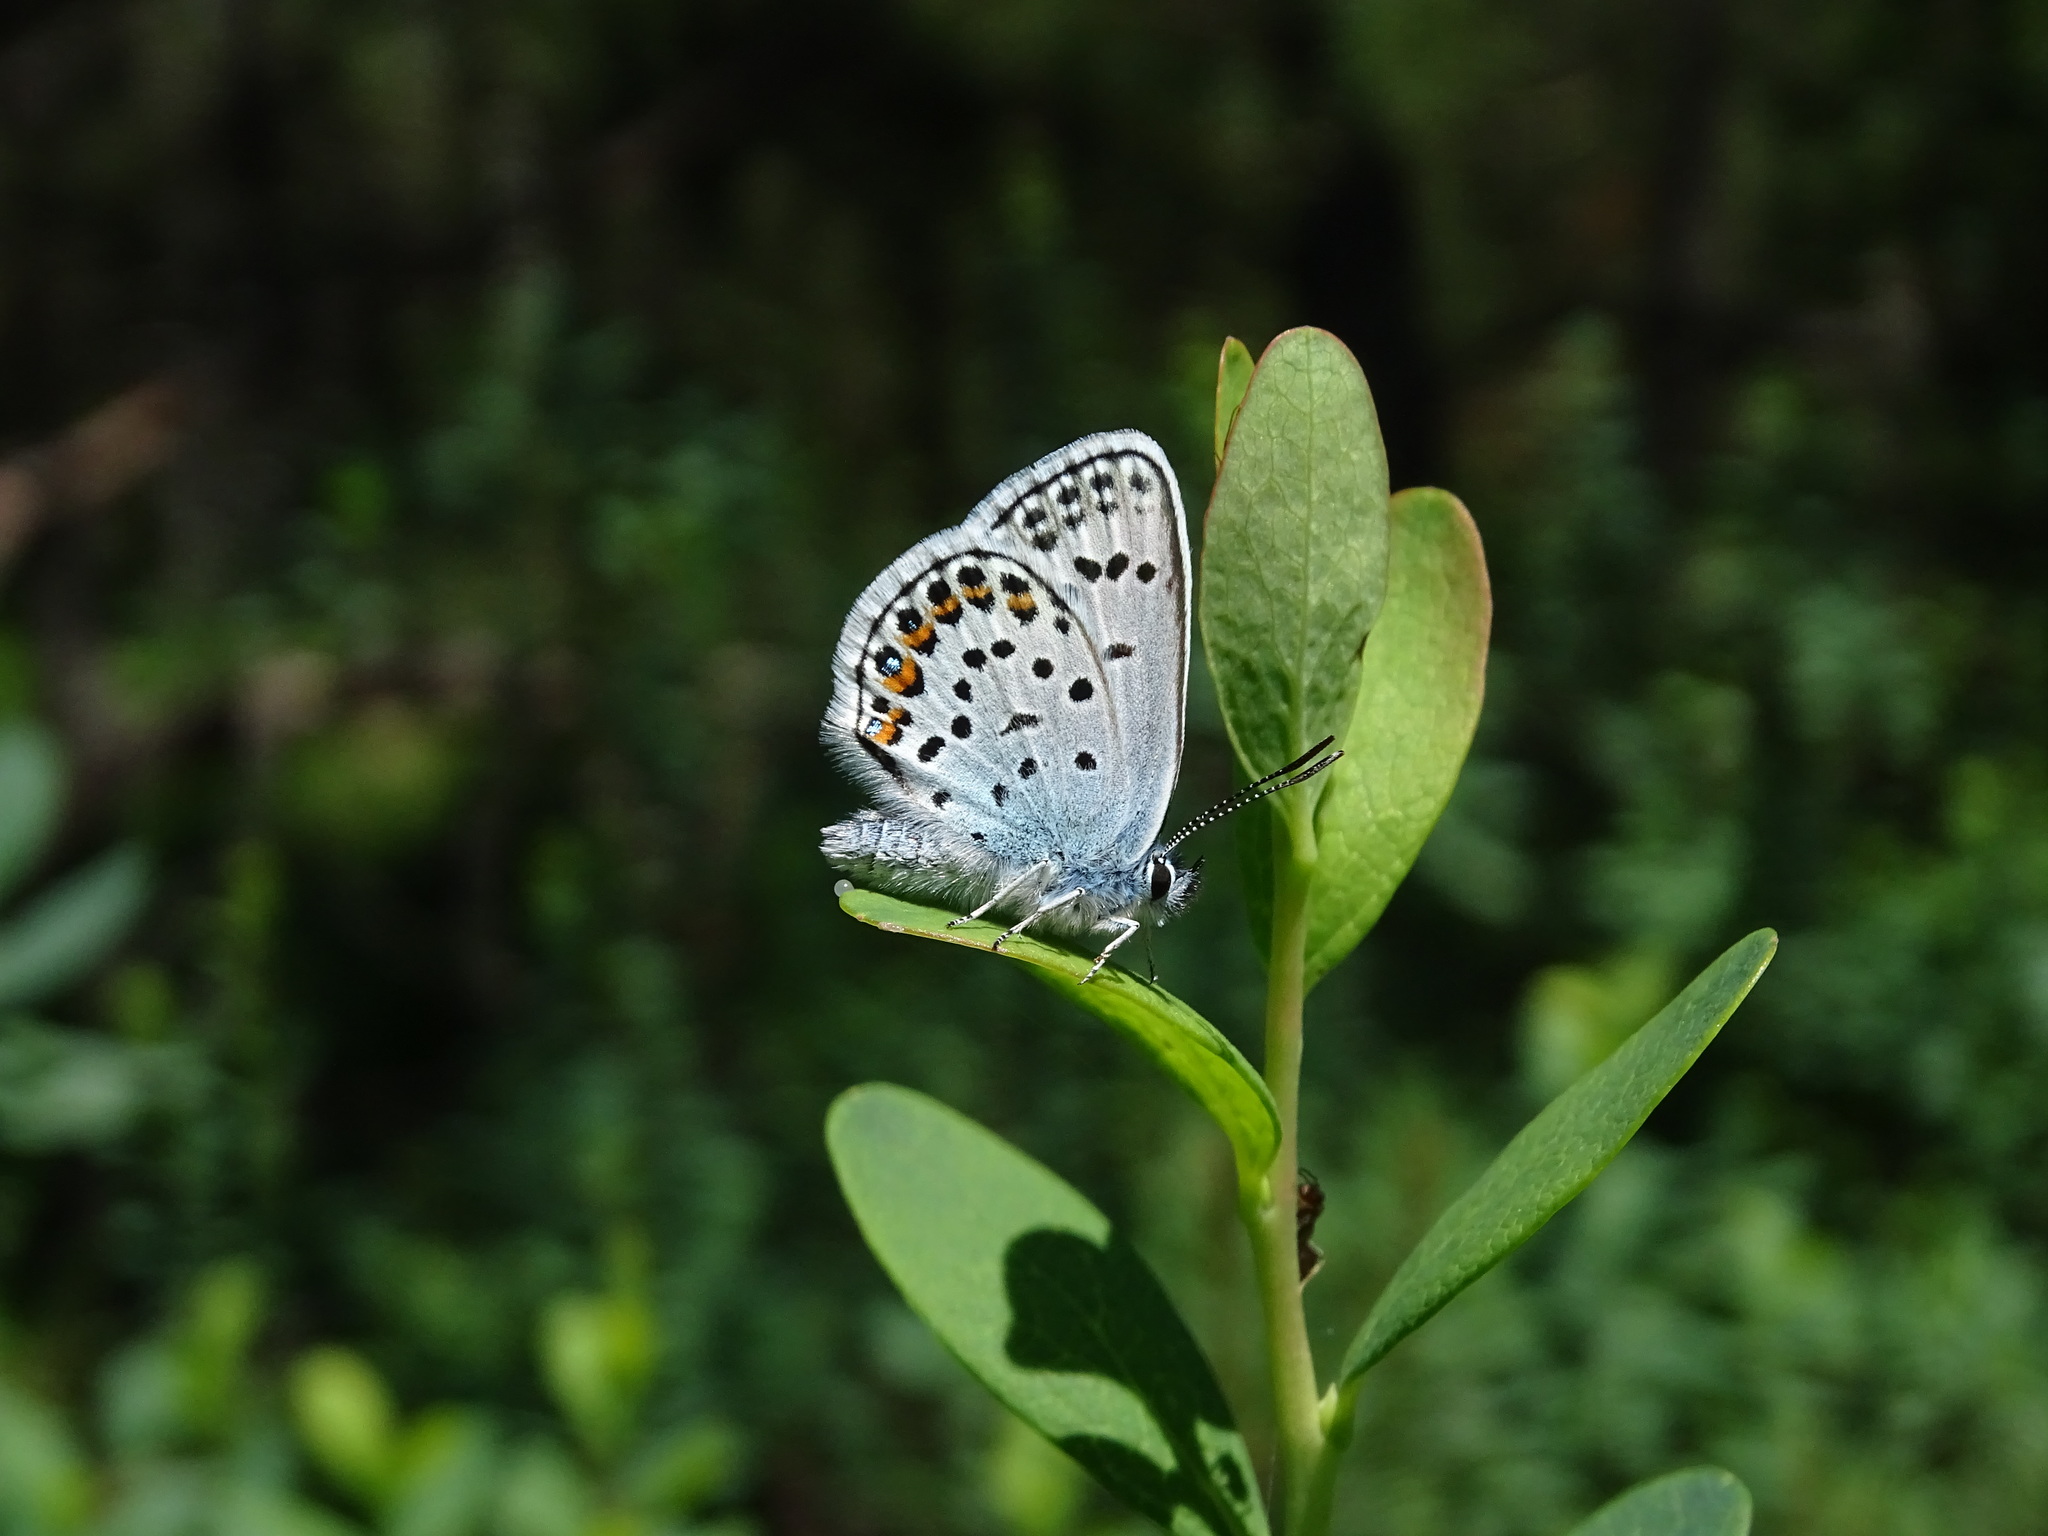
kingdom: Animalia
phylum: Arthropoda
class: Insecta
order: Lepidoptera
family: Lycaenidae
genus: Plebejus
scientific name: Plebejus argus
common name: Silver-studded blue
